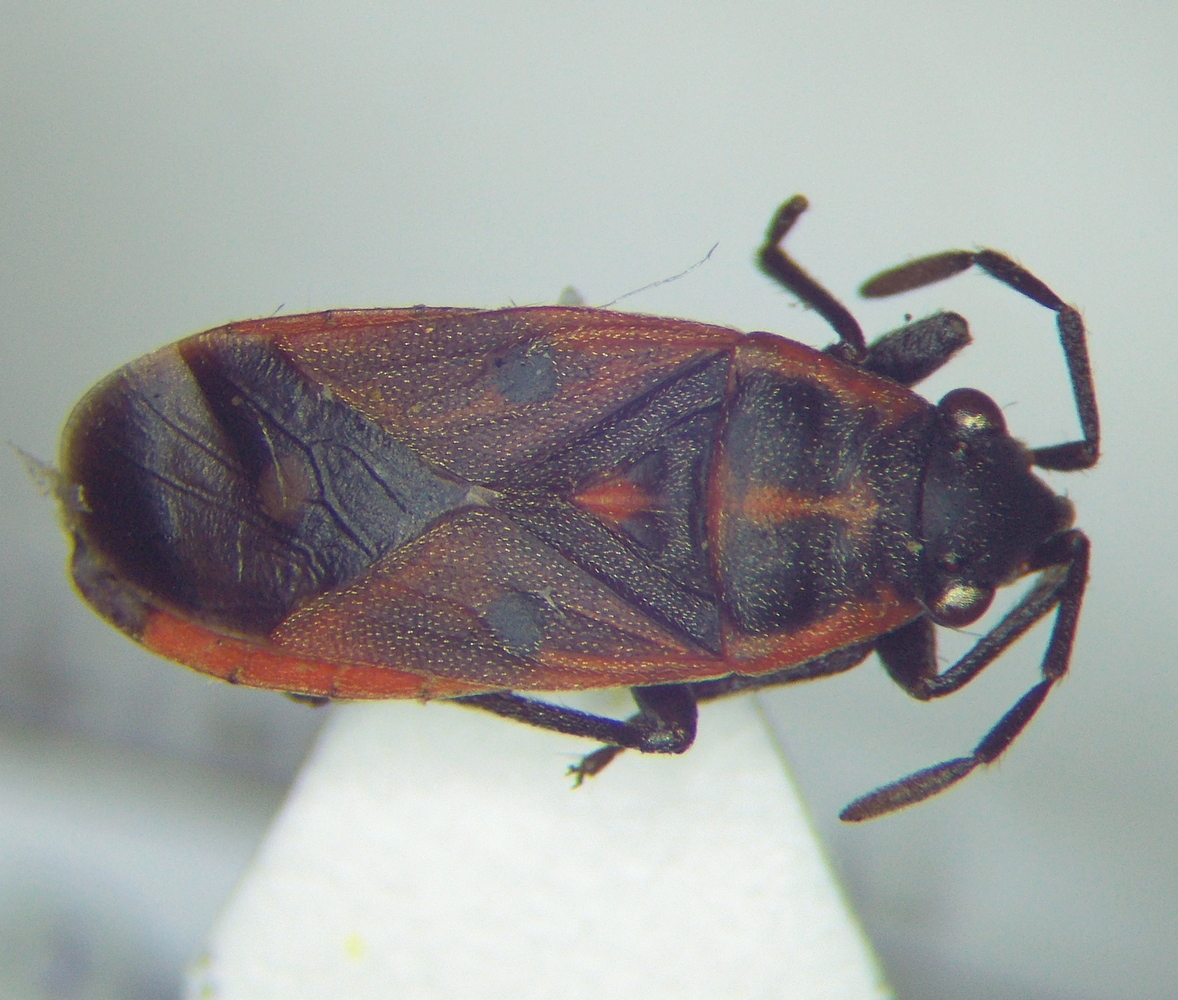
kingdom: Animalia
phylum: Arthropoda
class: Insecta
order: Hemiptera
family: Lygaeidae
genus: Melanocoryphus
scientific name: Melanocoryphus tristrami
